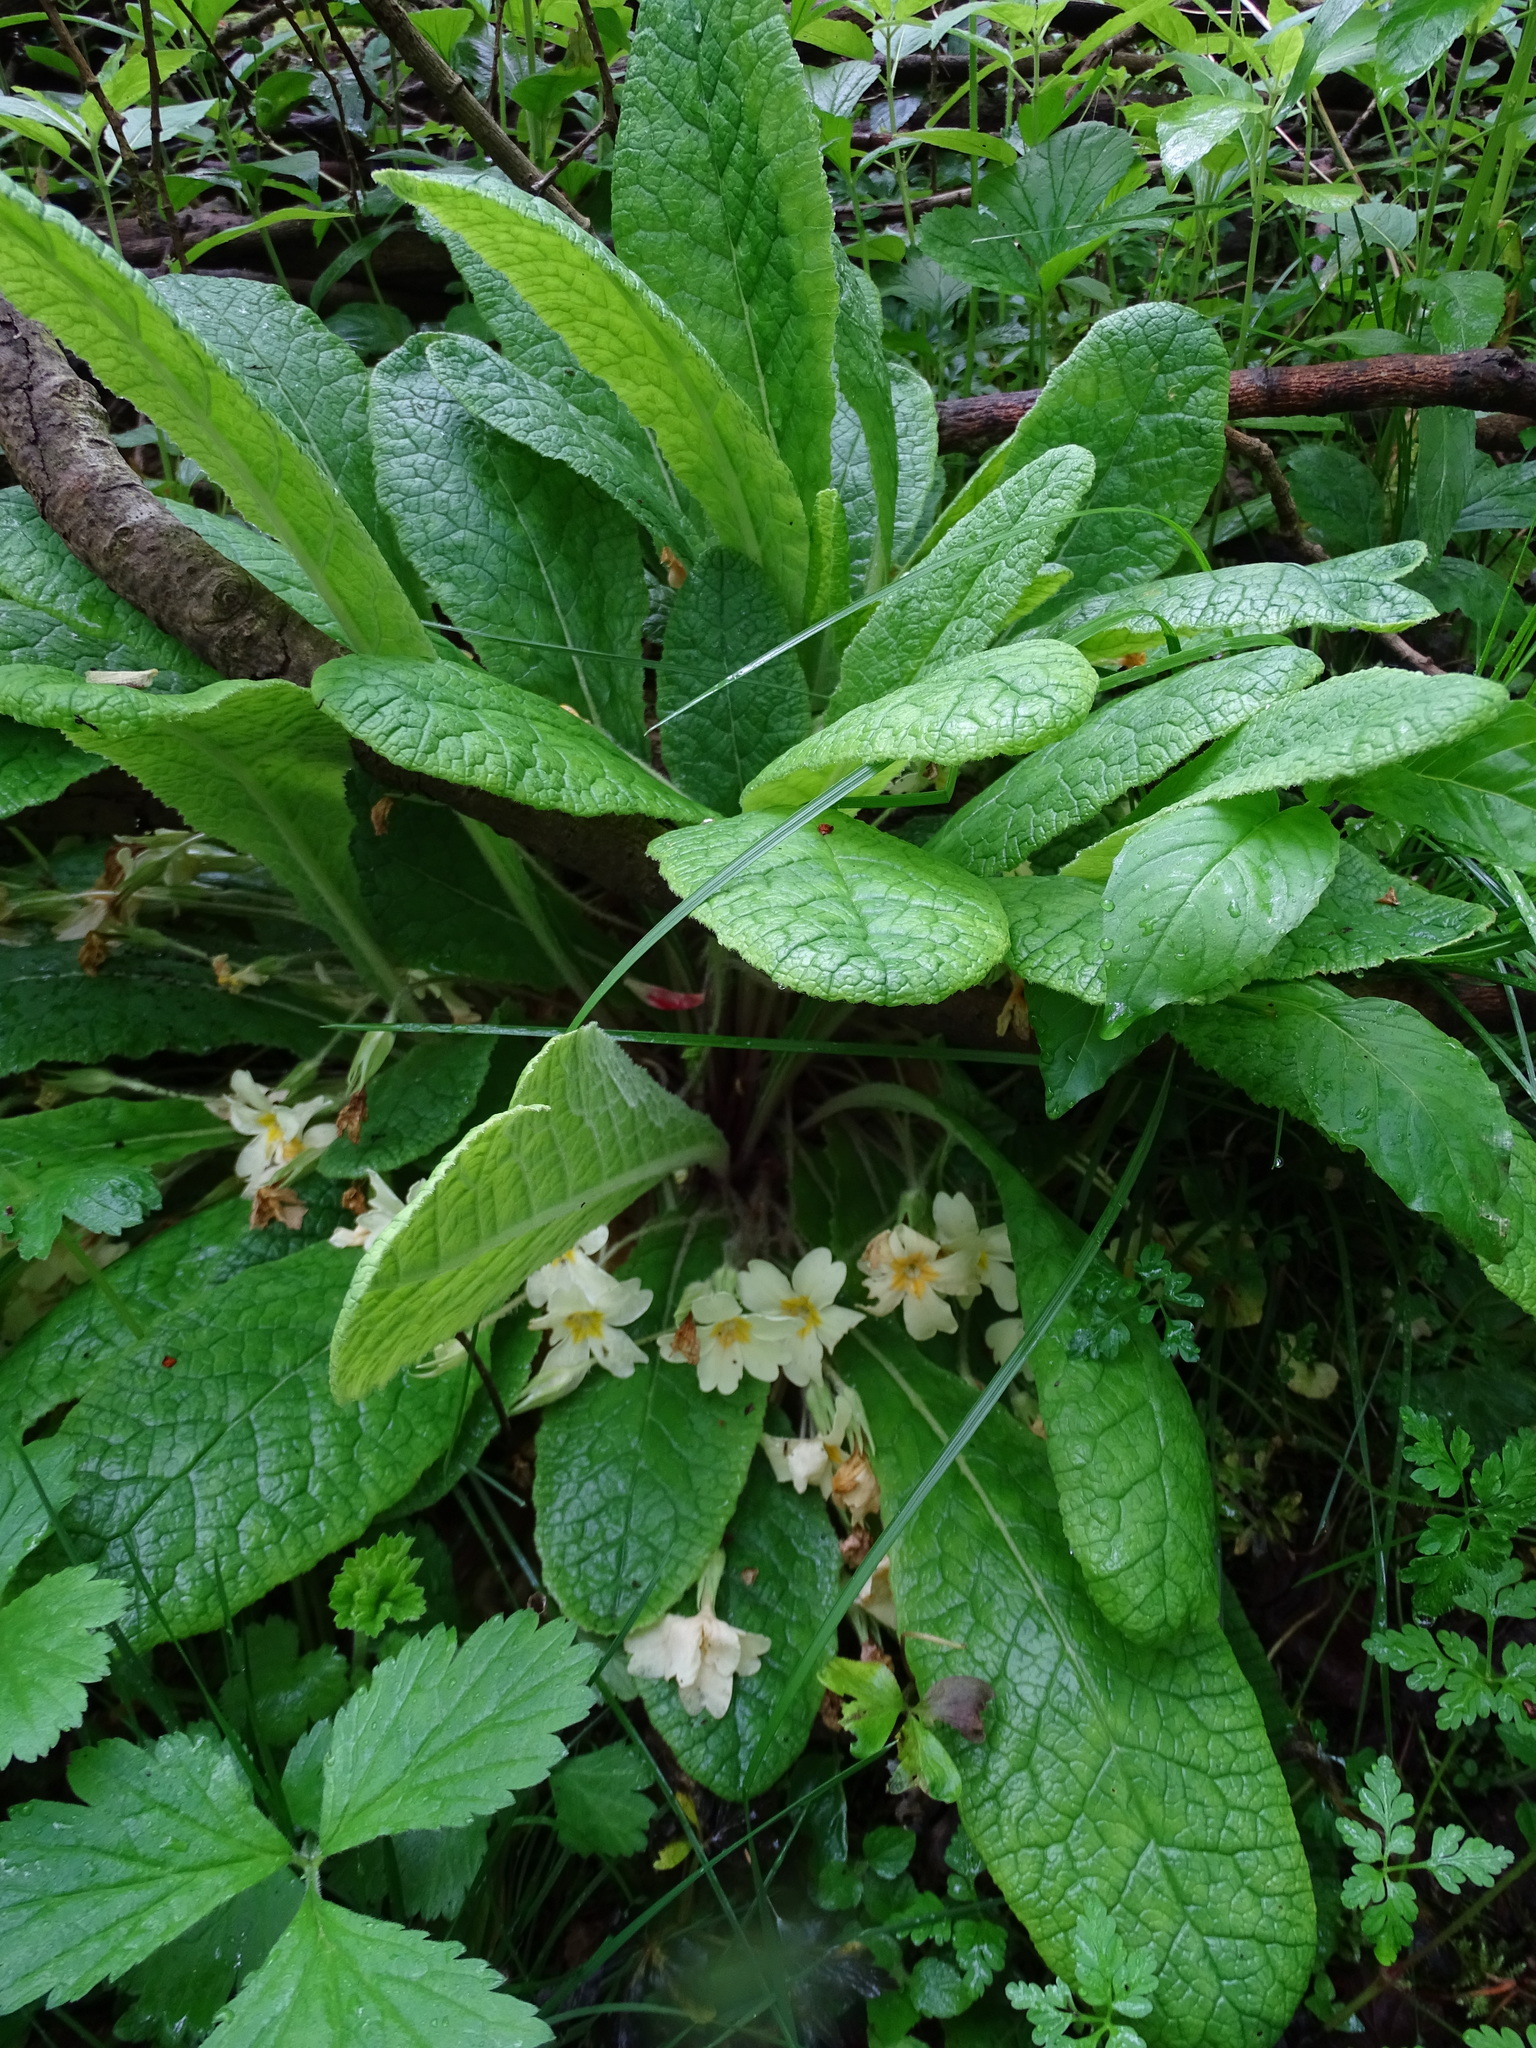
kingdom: Plantae
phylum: Tracheophyta
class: Magnoliopsida
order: Ericales
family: Primulaceae
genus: Primula
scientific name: Primula vulgaris
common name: Primrose
